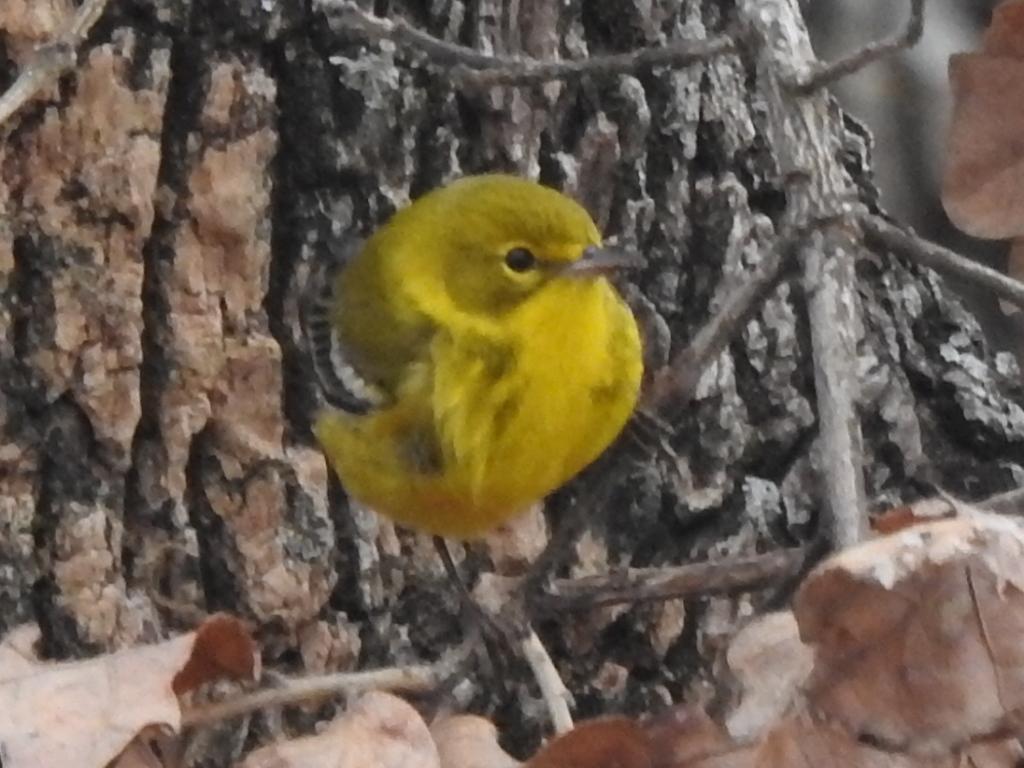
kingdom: Animalia
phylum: Chordata
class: Aves
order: Passeriformes
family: Parulidae
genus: Setophaga
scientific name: Setophaga pinus
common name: Pine warbler
